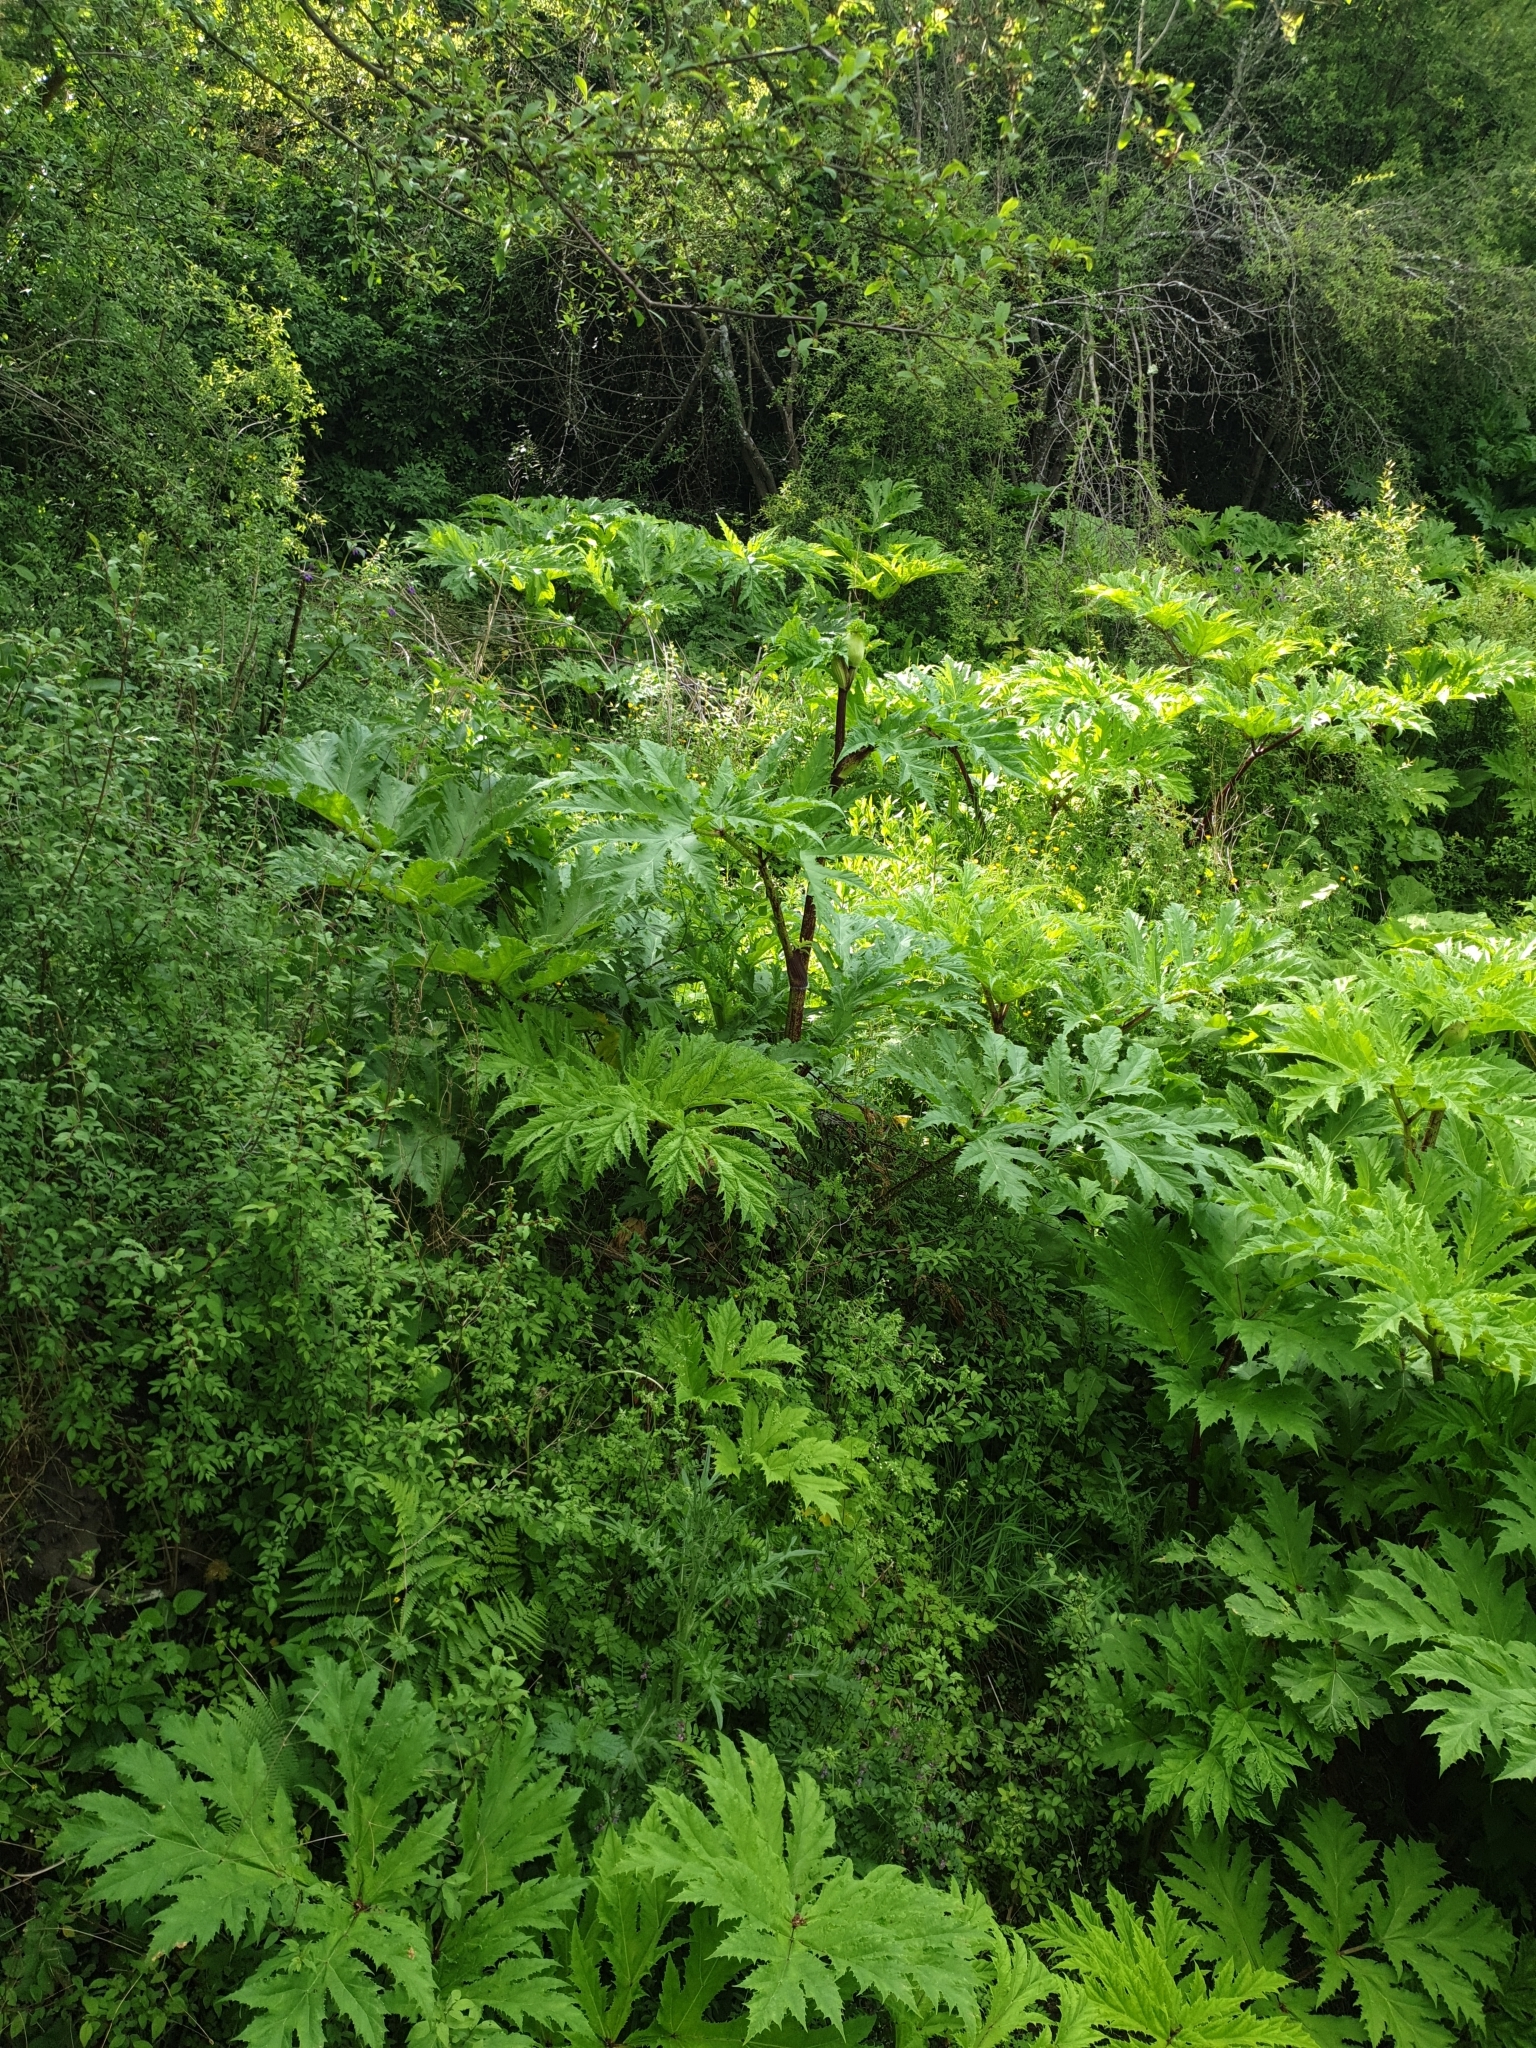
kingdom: Plantae
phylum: Tracheophyta
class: Magnoliopsida
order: Apiales
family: Apiaceae
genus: Heracleum
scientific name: Heracleum mantegazzianum
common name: Giant hogweed
